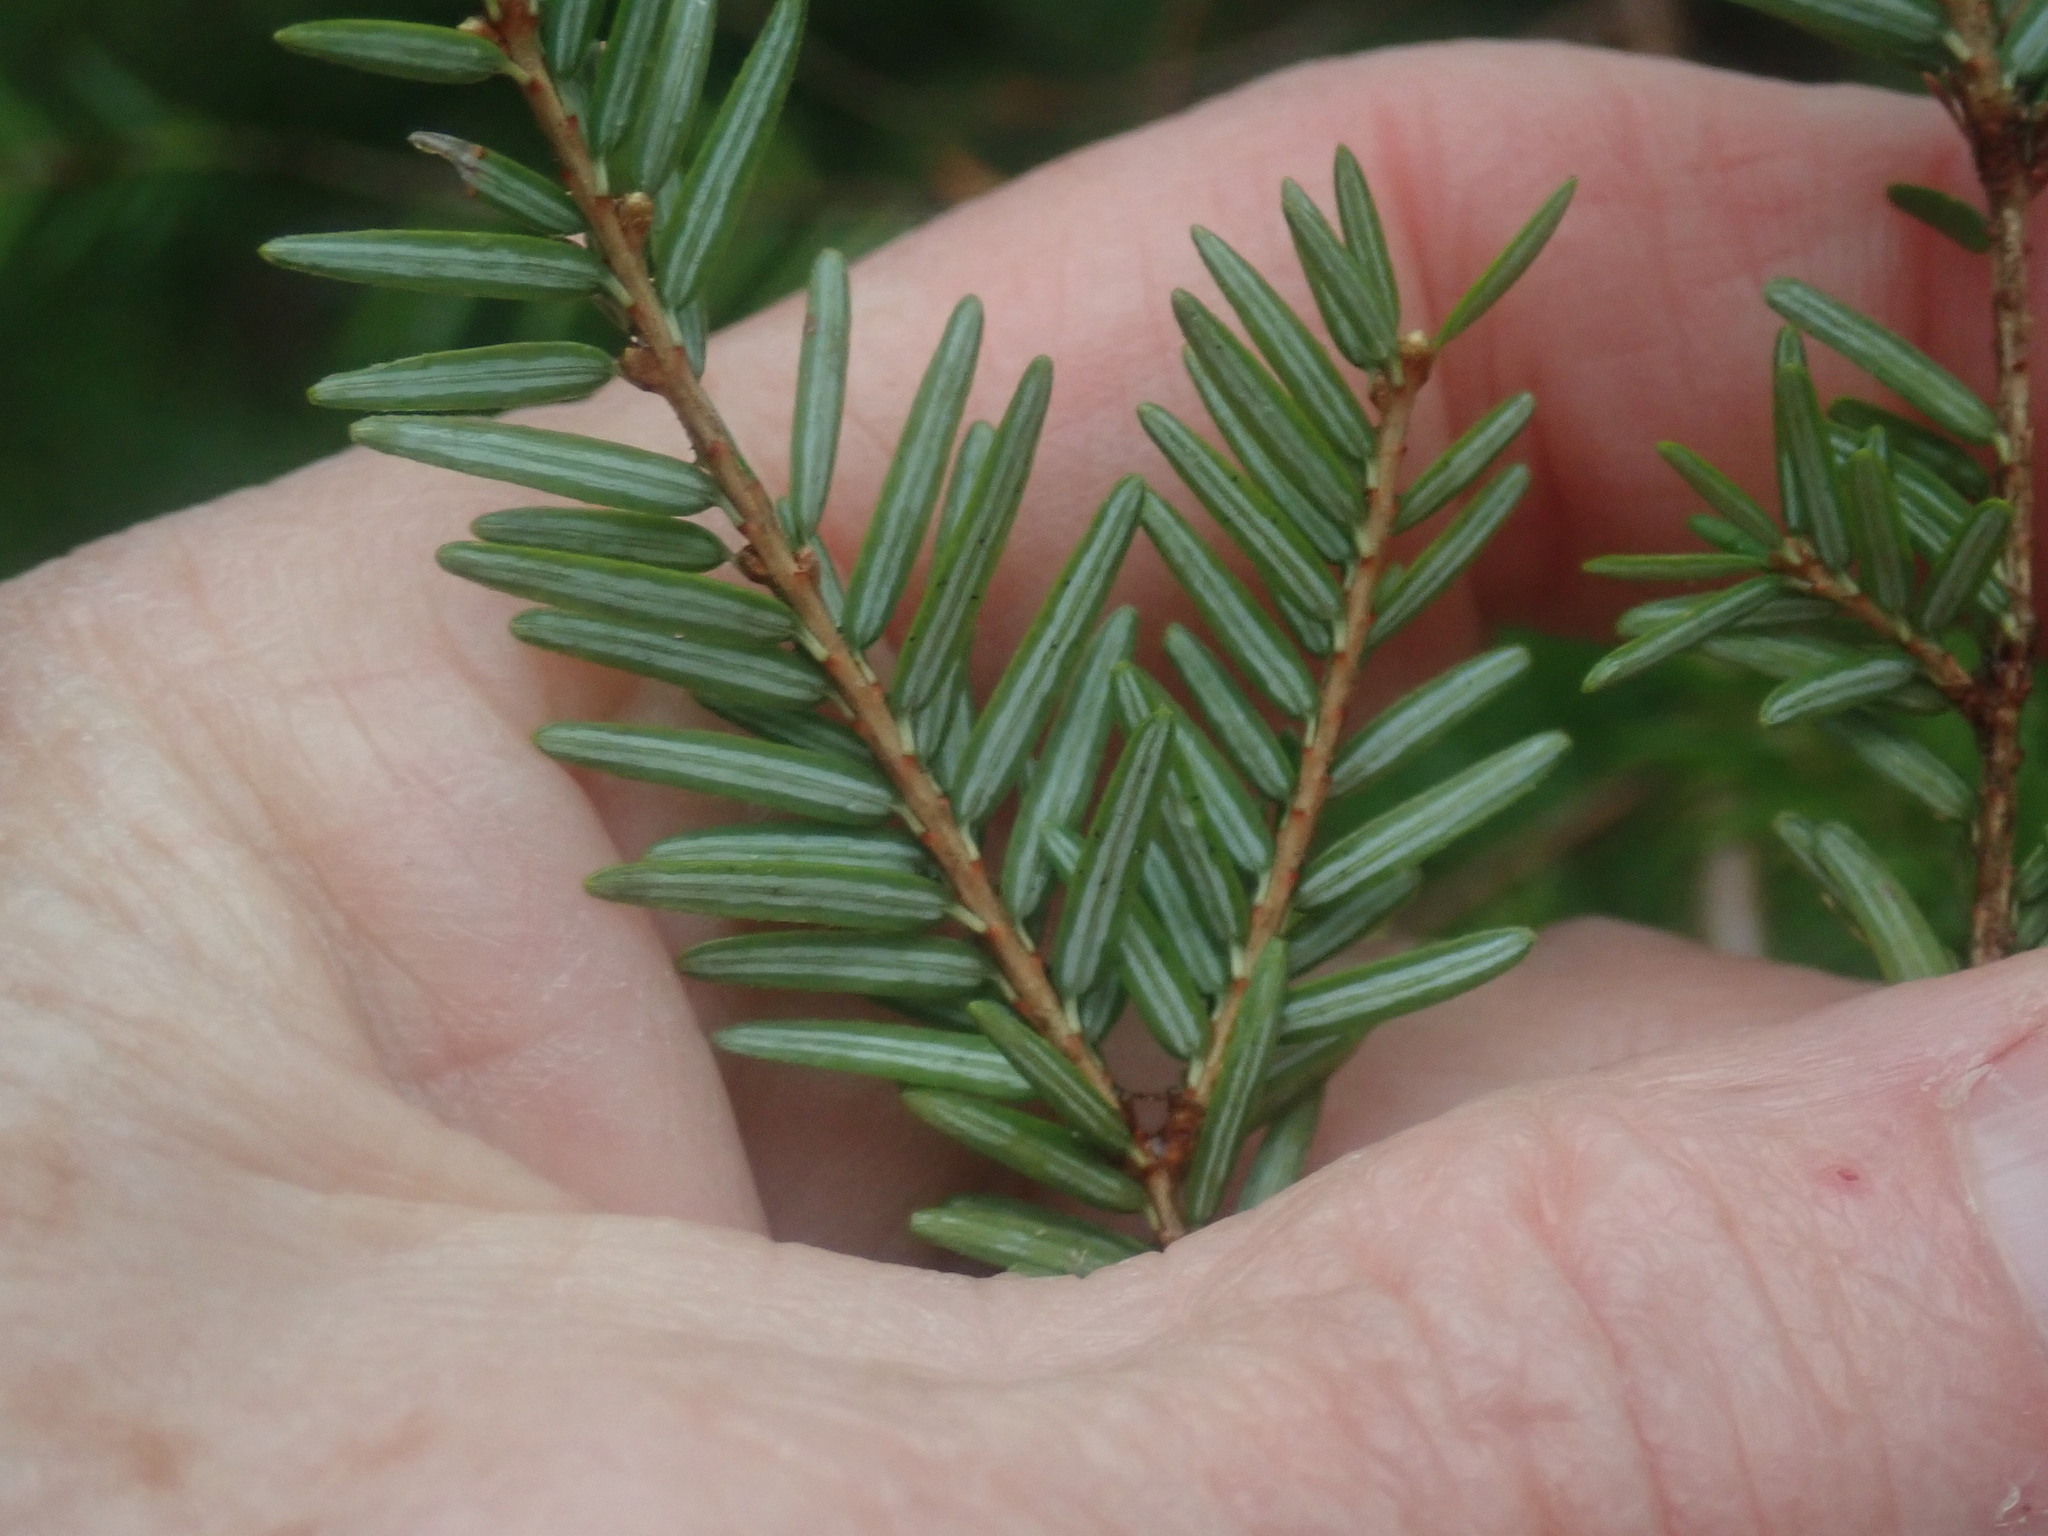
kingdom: Plantae
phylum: Tracheophyta
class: Pinopsida
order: Pinales
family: Pinaceae
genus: Tsuga
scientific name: Tsuga canadensis
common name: Eastern hemlock
